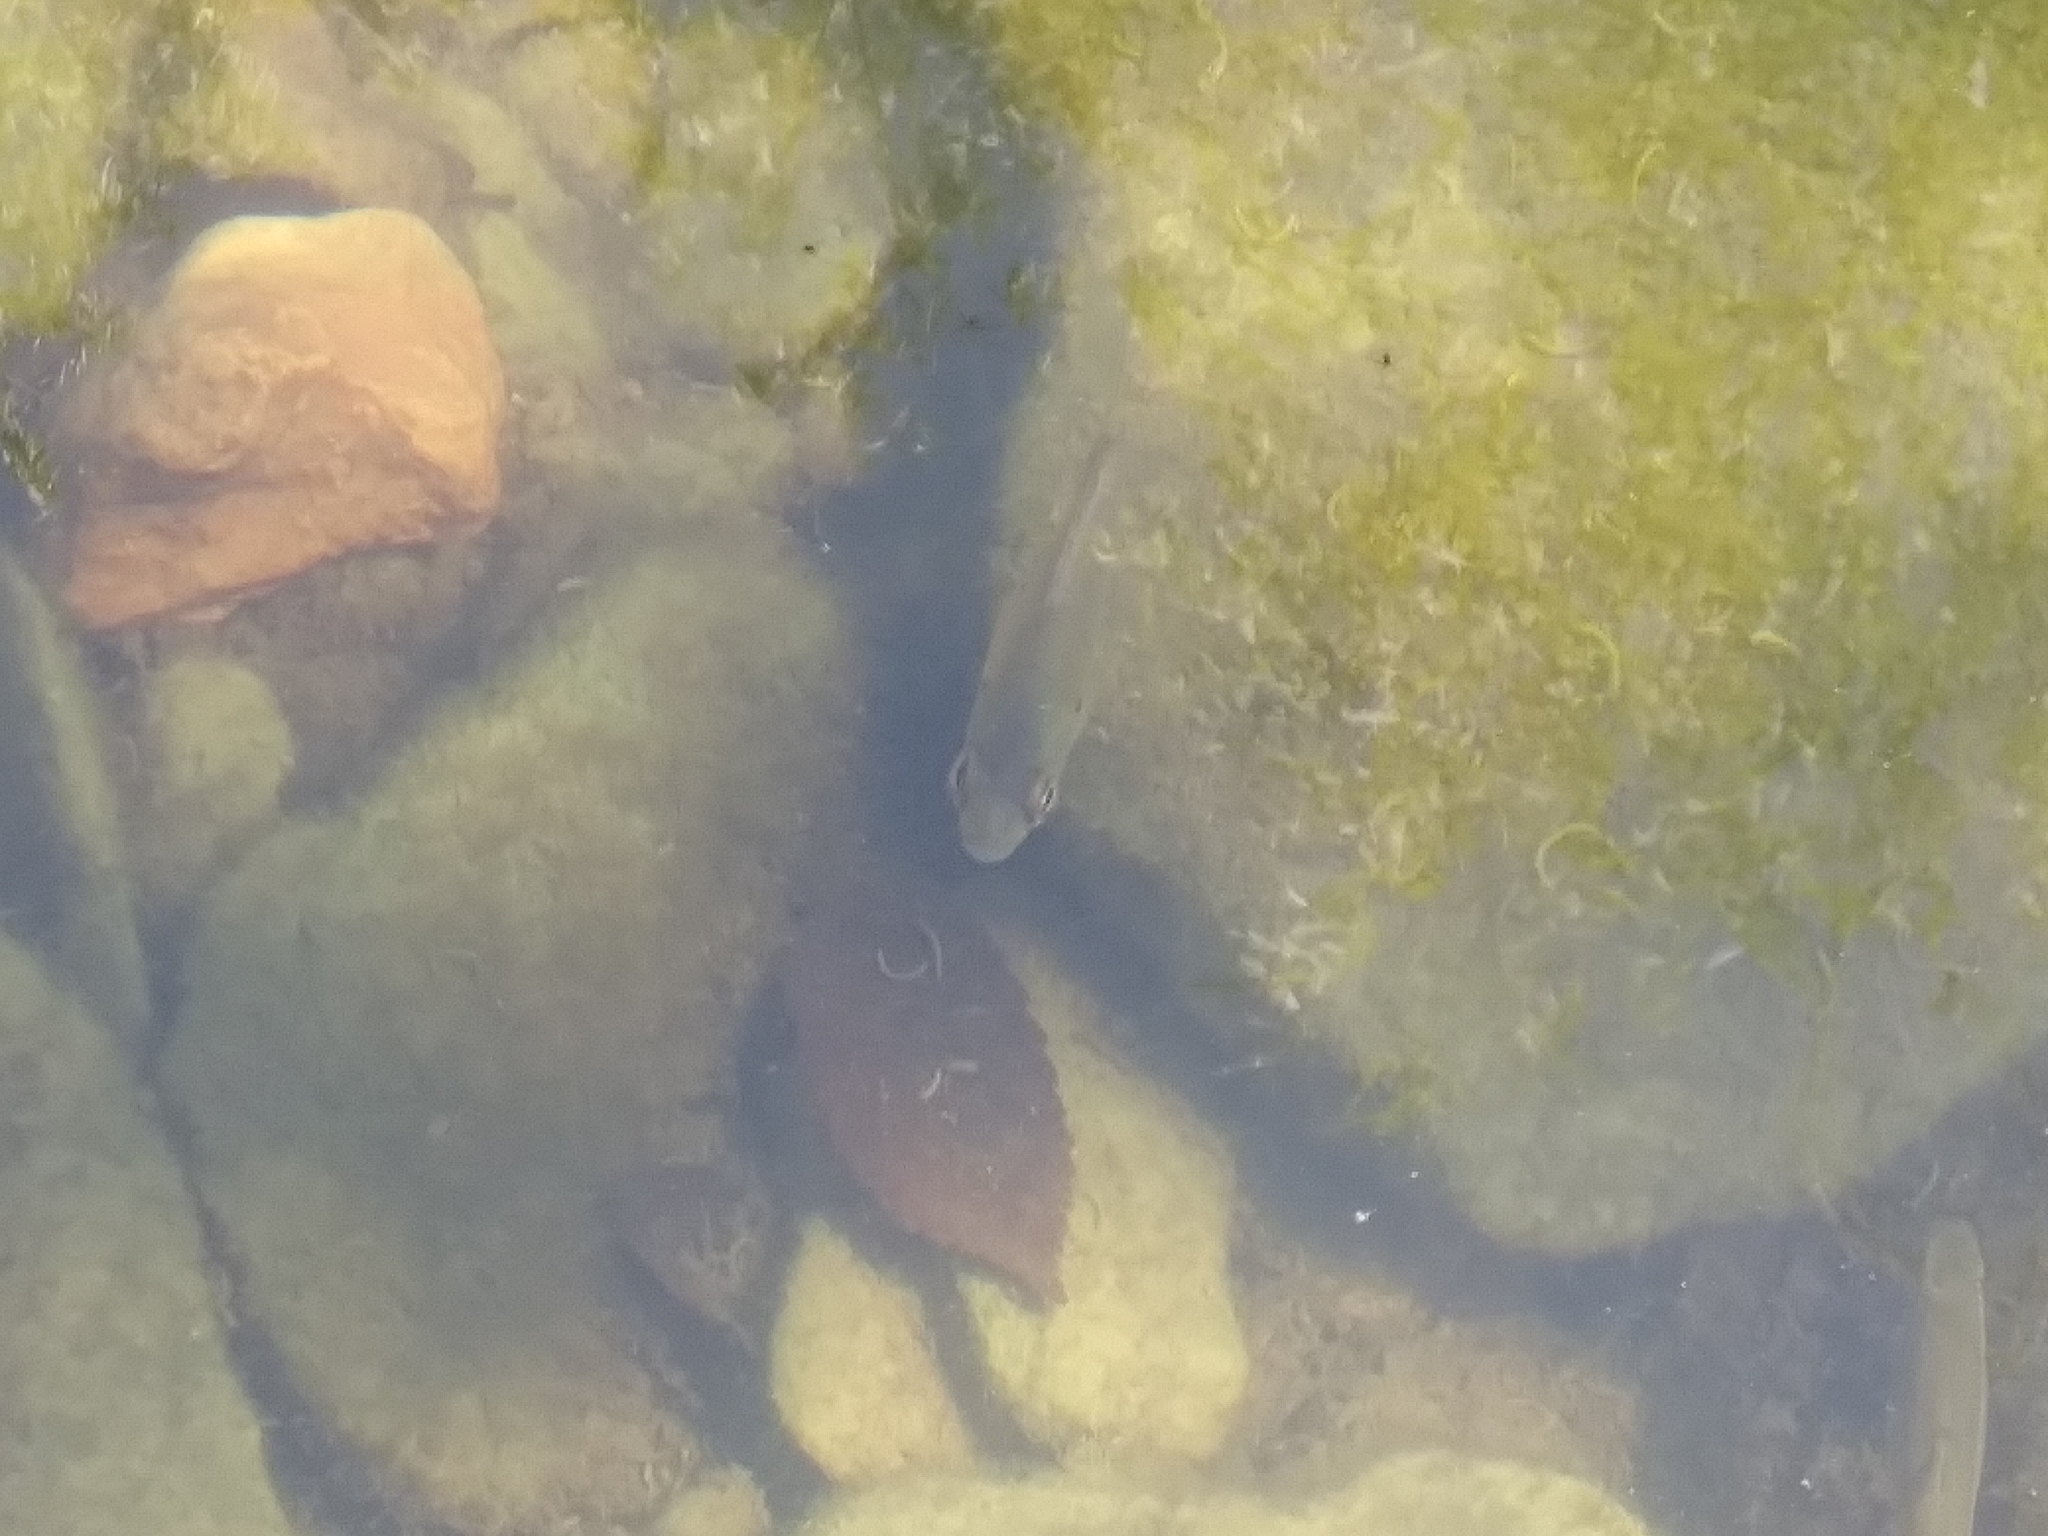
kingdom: Animalia
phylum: Chordata
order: Perciformes
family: Centrarchidae
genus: Lepomis
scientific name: Lepomis macrochirus
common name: Bluegill
